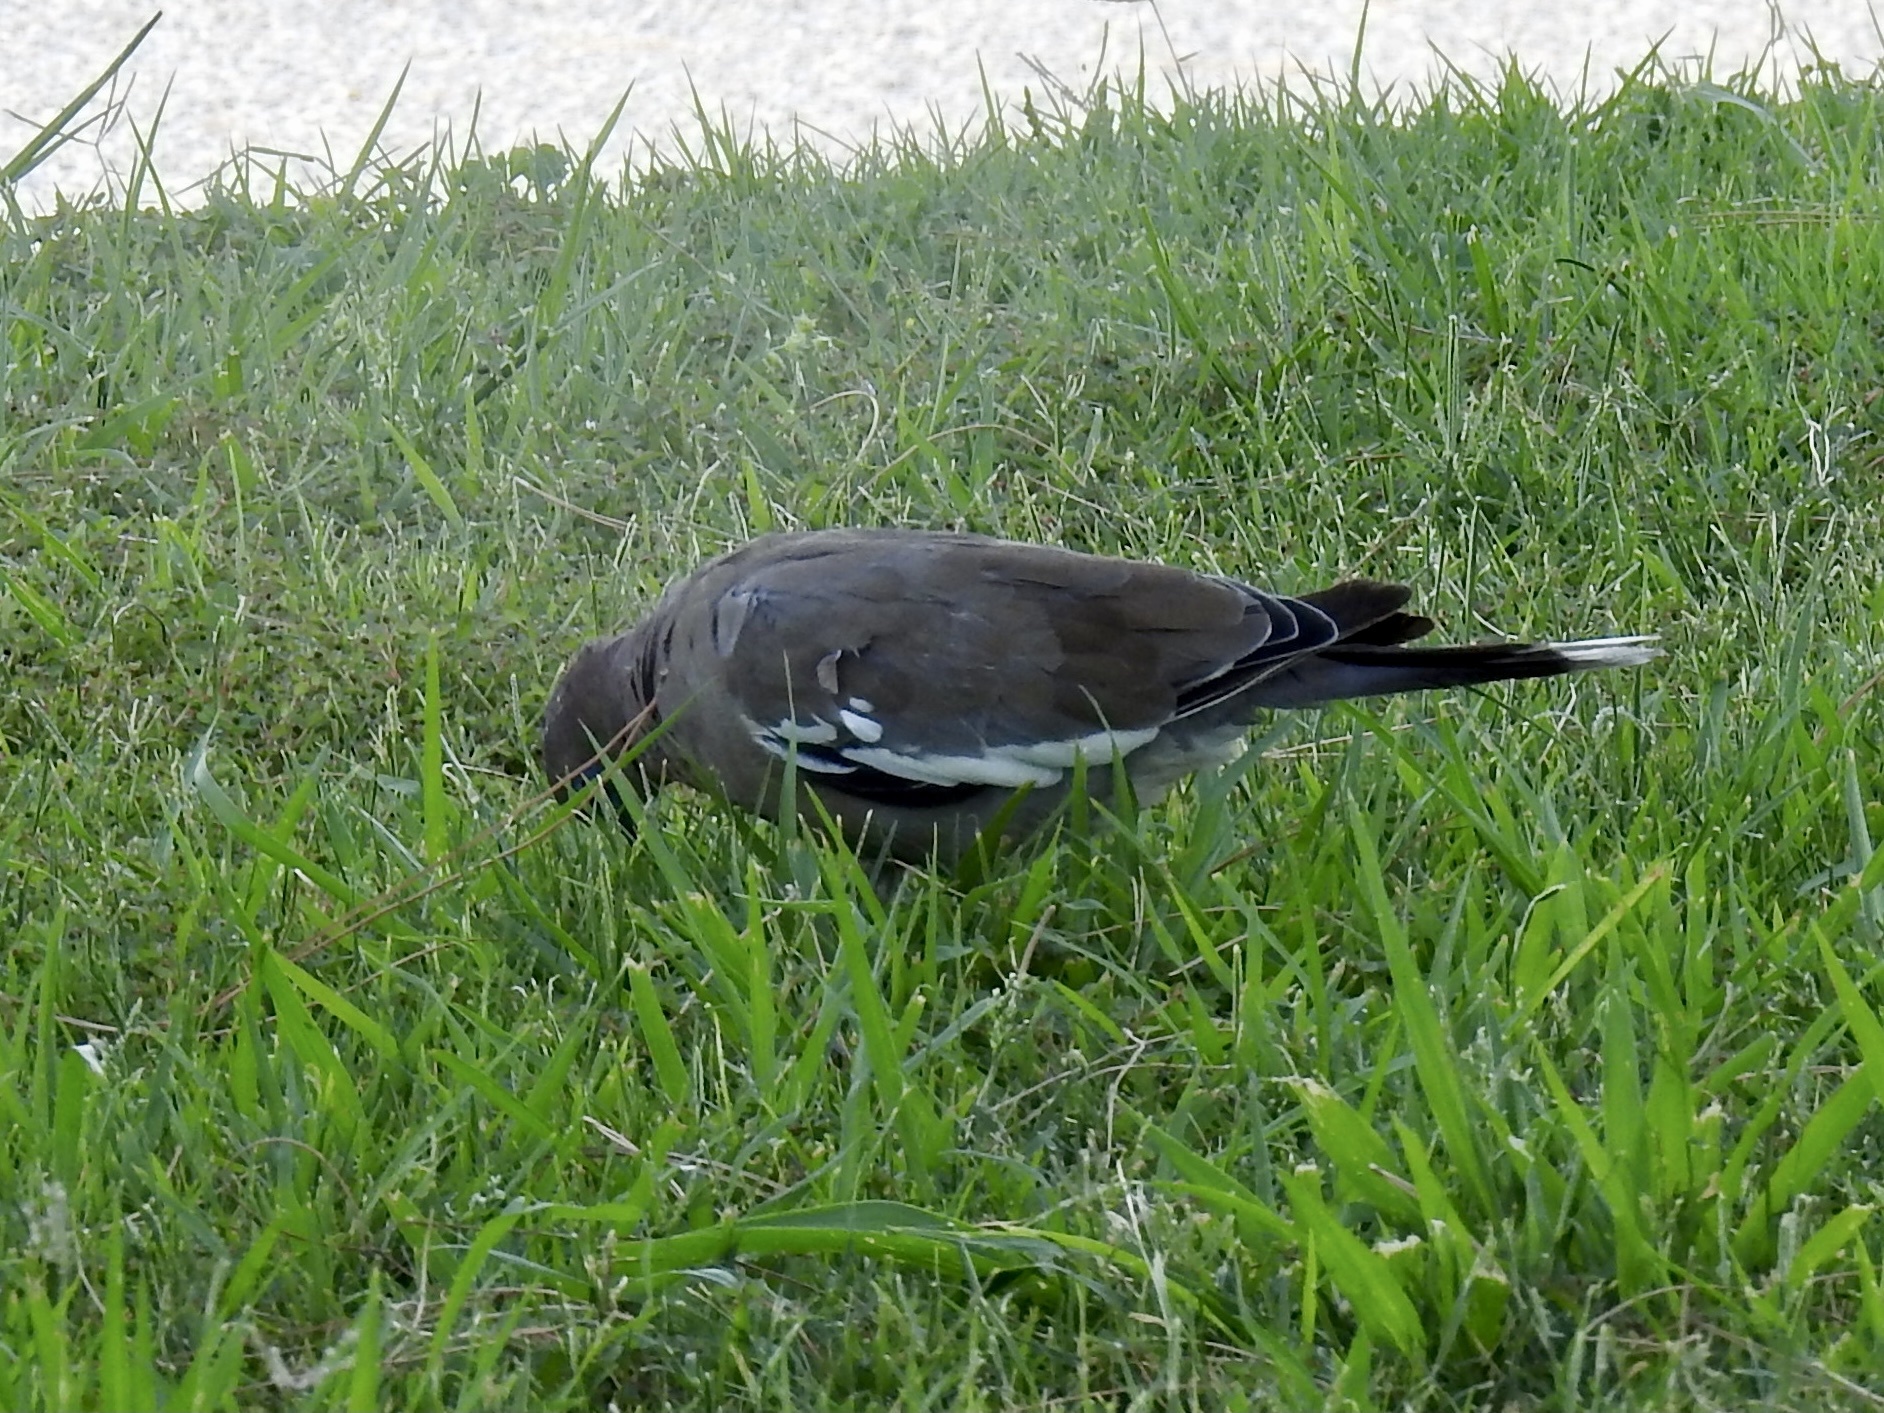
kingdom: Animalia
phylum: Chordata
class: Aves
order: Columbiformes
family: Columbidae
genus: Zenaida
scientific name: Zenaida asiatica
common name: White-winged dove
